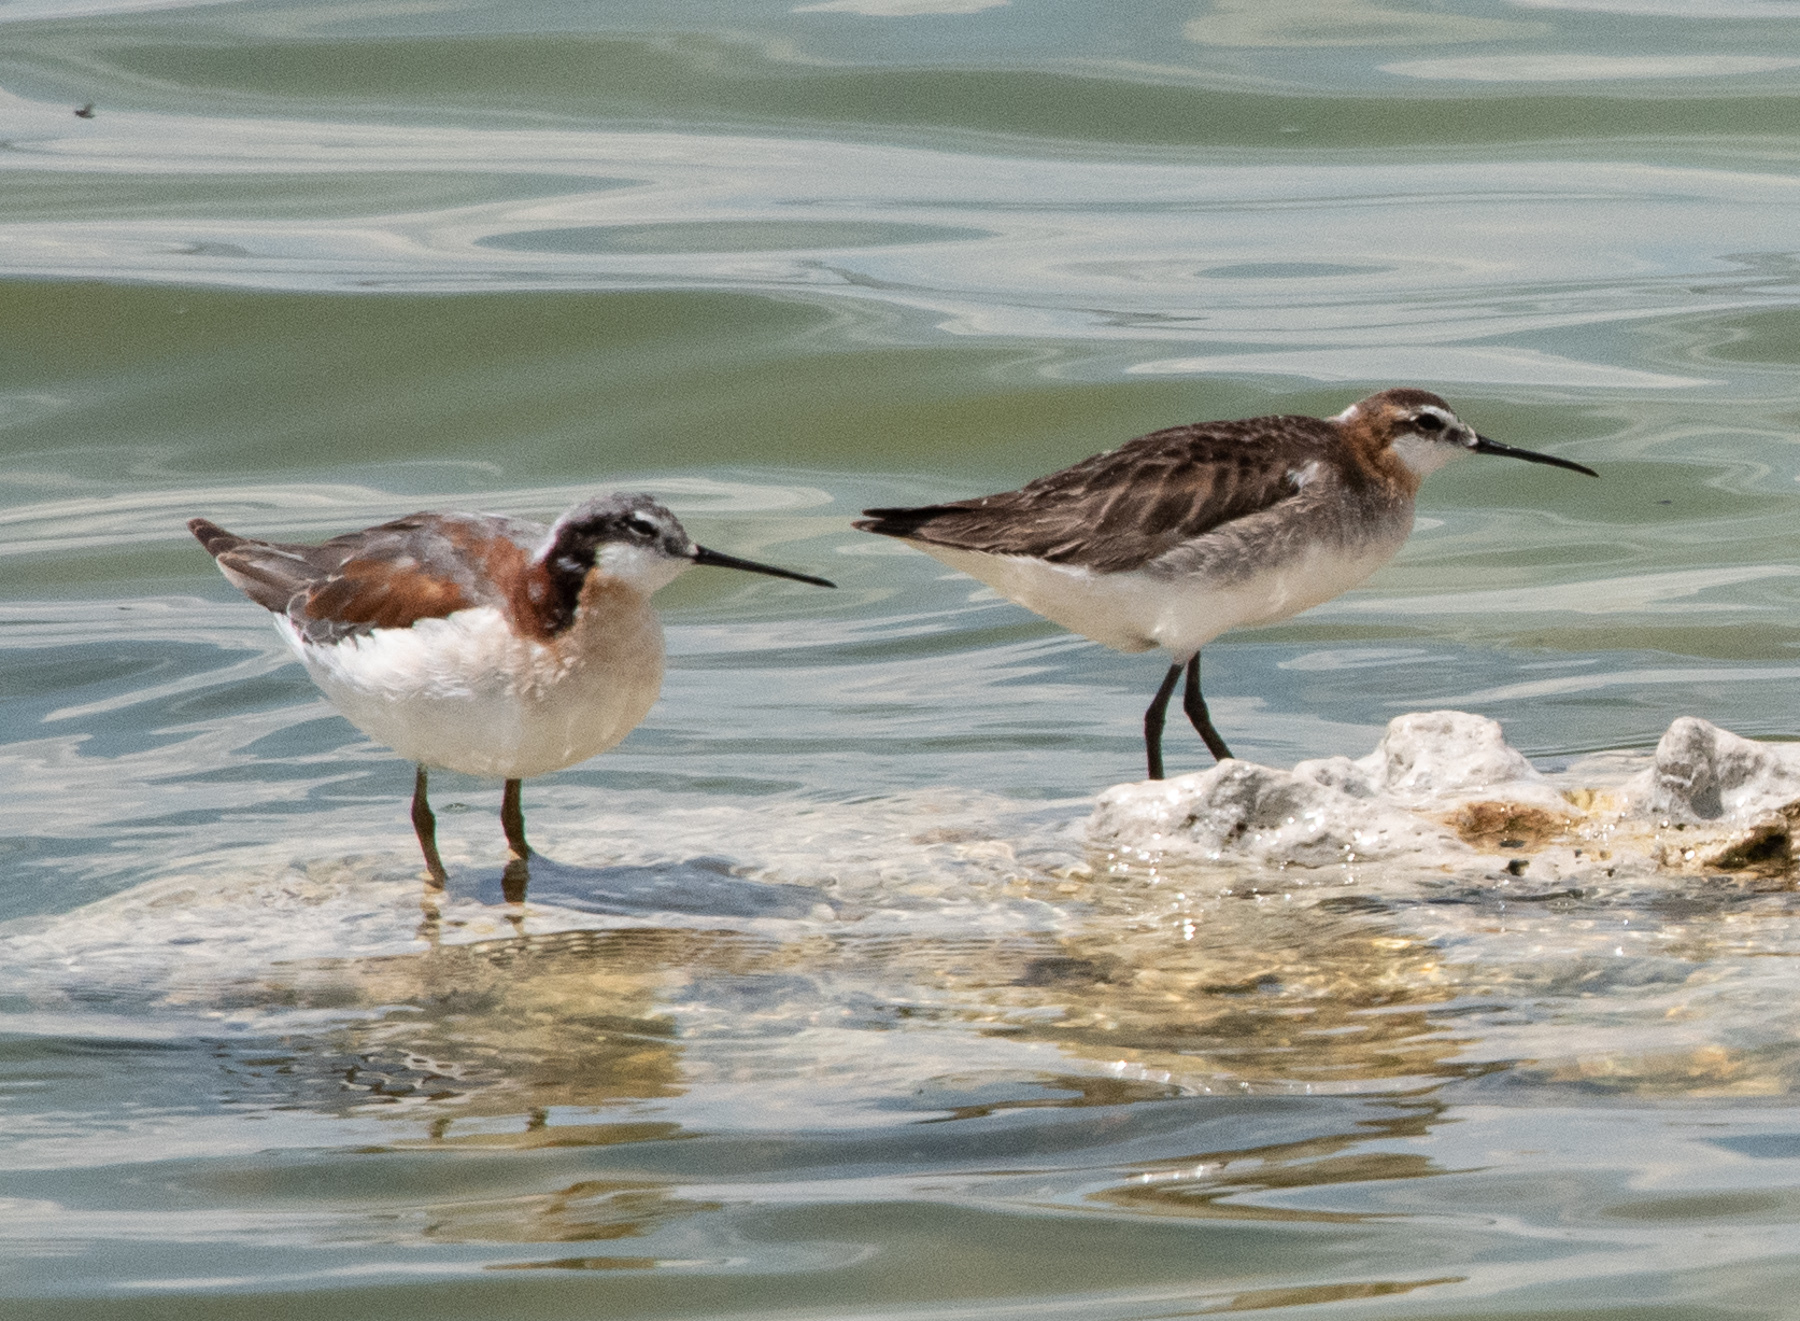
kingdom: Animalia
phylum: Chordata
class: Aves
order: Charadriiformes
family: Scolopacidae
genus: Phalaropus
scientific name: Phalaropus tricolor
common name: Wilson's phalarope
